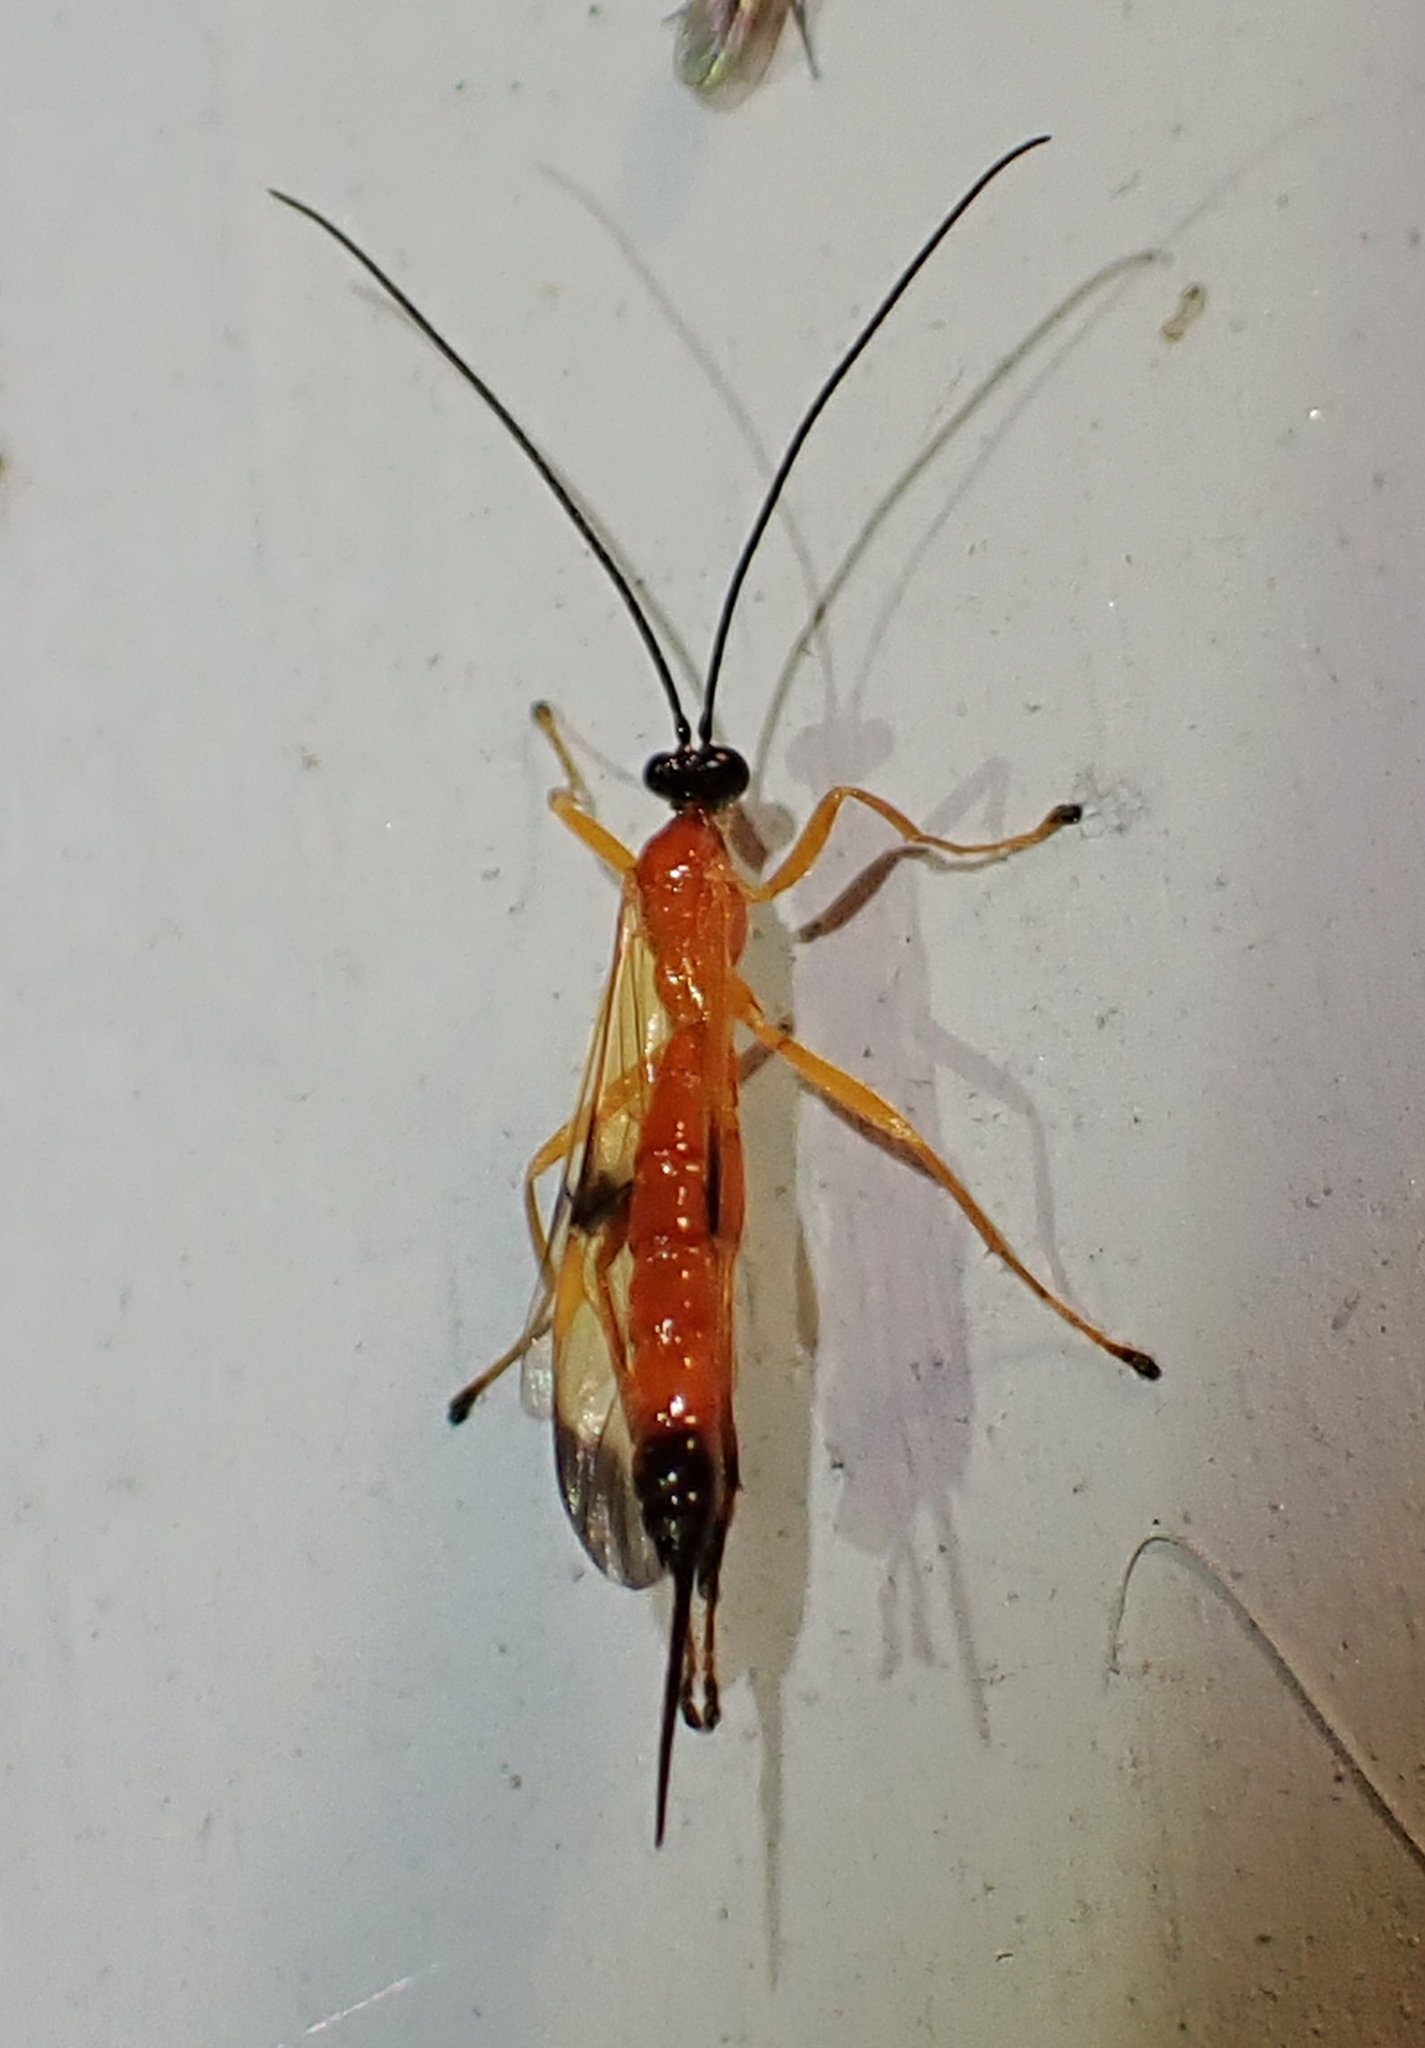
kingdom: Animalia
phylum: Arthropoda
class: Insecta
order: Hymenoptera
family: Ichneumonidae
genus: Acrotaphus
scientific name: Acrotaphus wiltii
